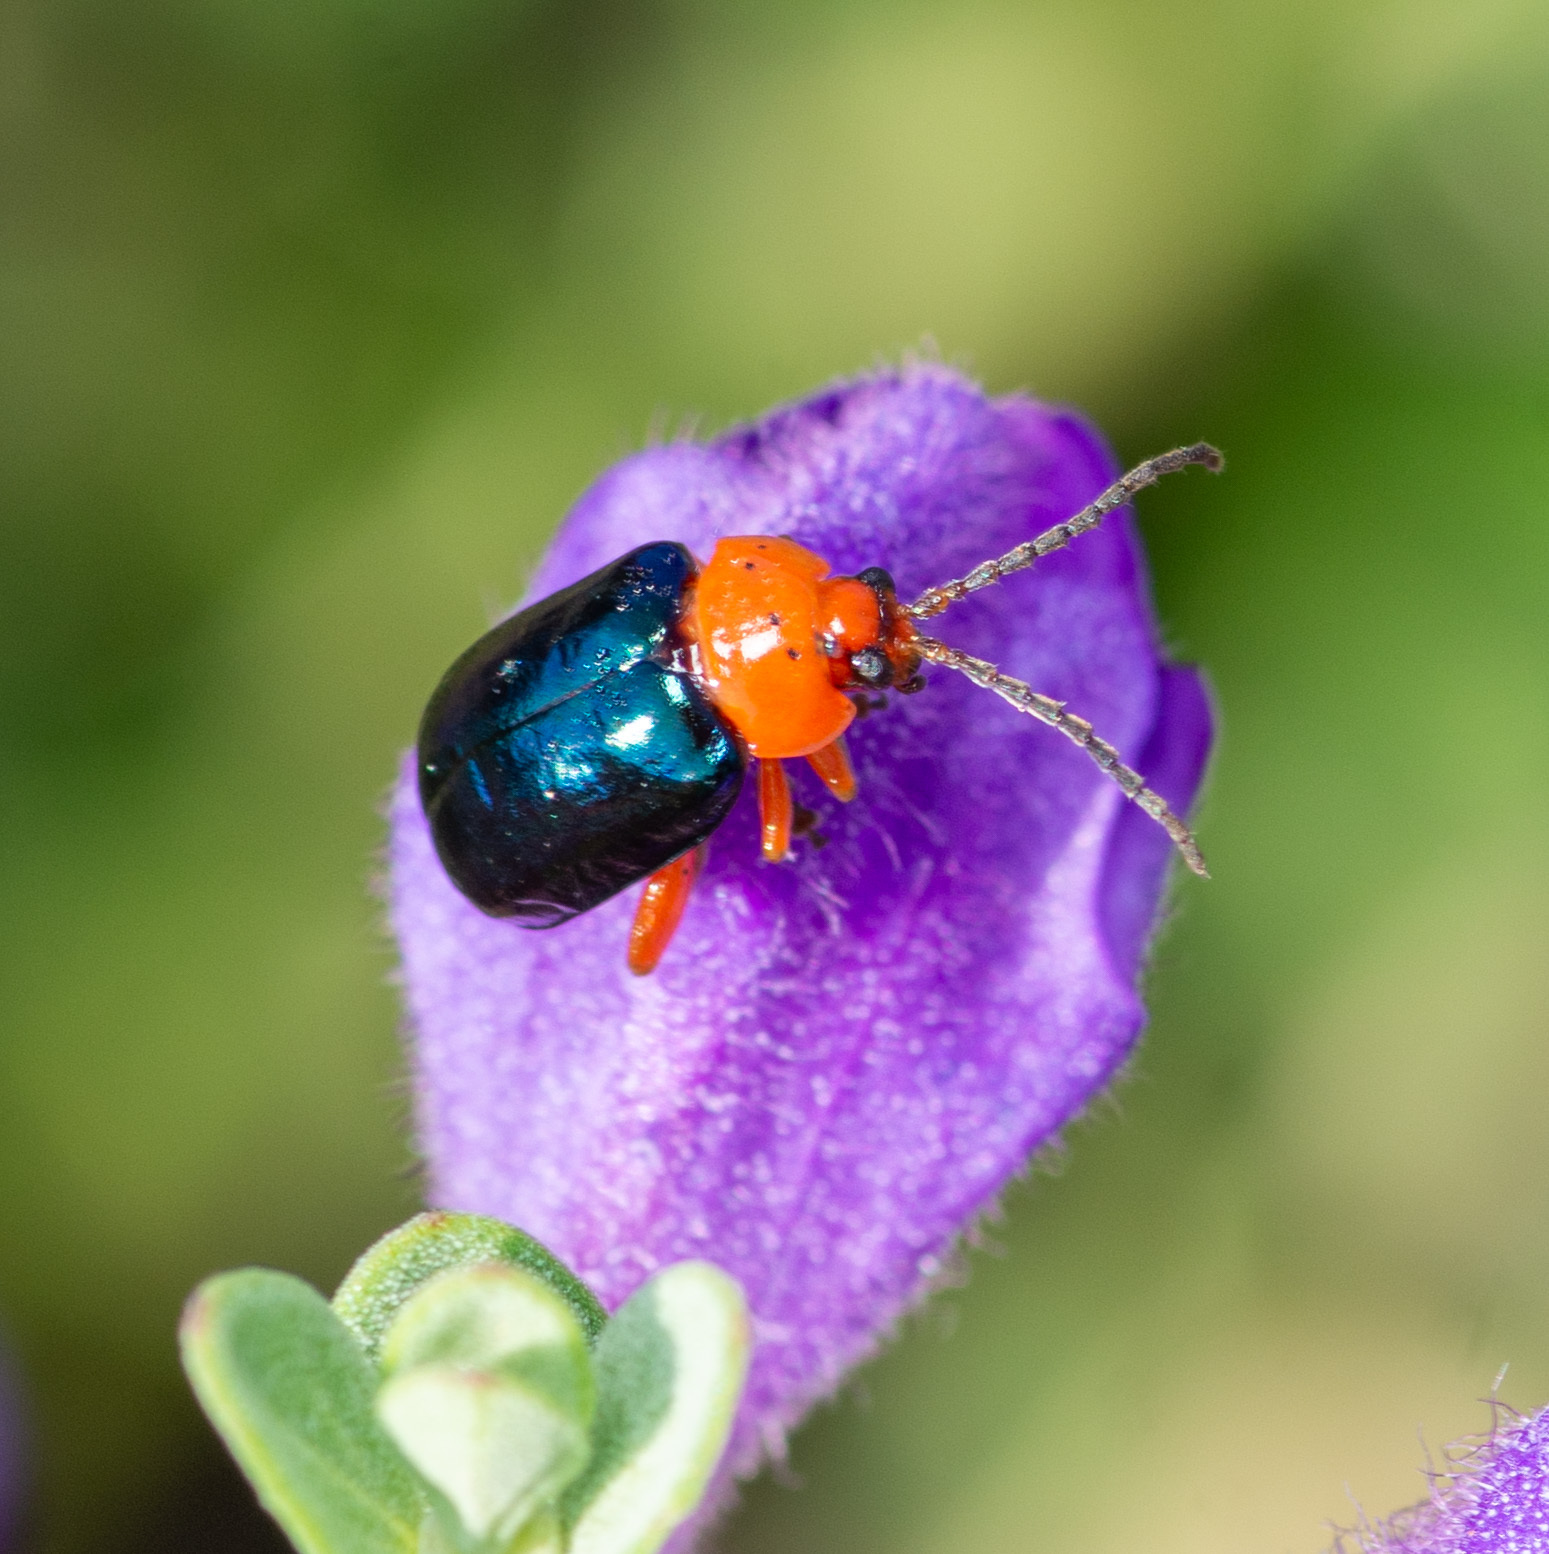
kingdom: Animalia
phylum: Arthropoda
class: Insecta
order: Coleoptera
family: Chrysomelidae
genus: Asphaera
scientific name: Asphaera lustrans
